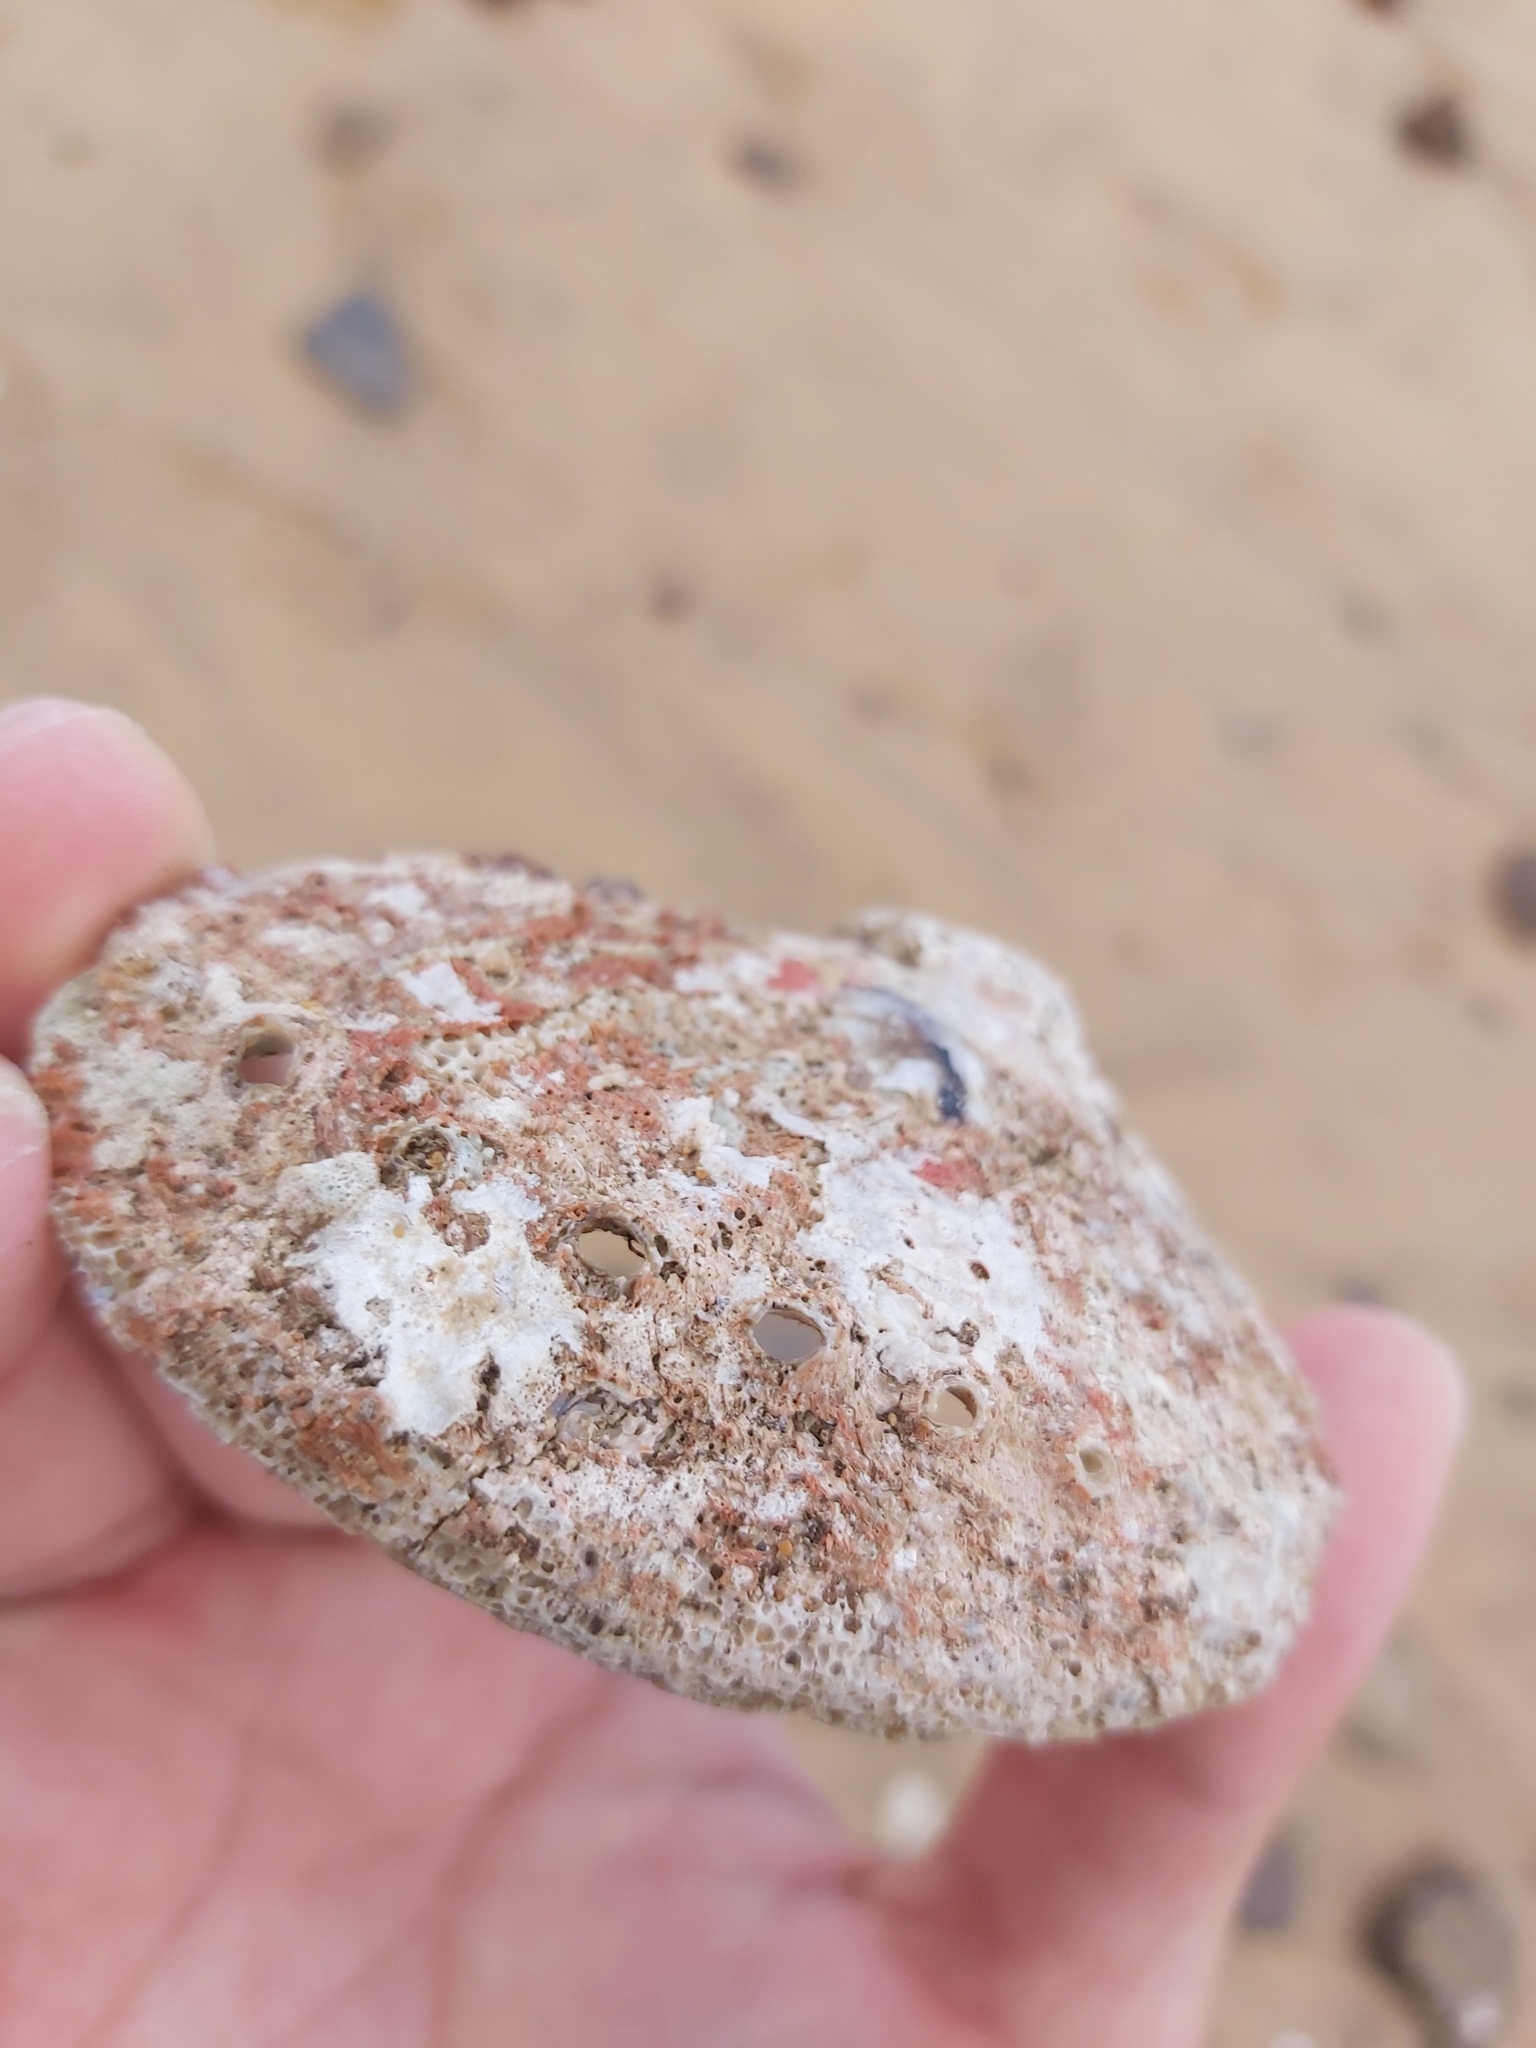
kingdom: Animalia
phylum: Mollusca
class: Gastropoda
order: Lepetellida
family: Haliotidae
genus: Haliotis
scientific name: Haliotis rubra
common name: Blacklip abalone
